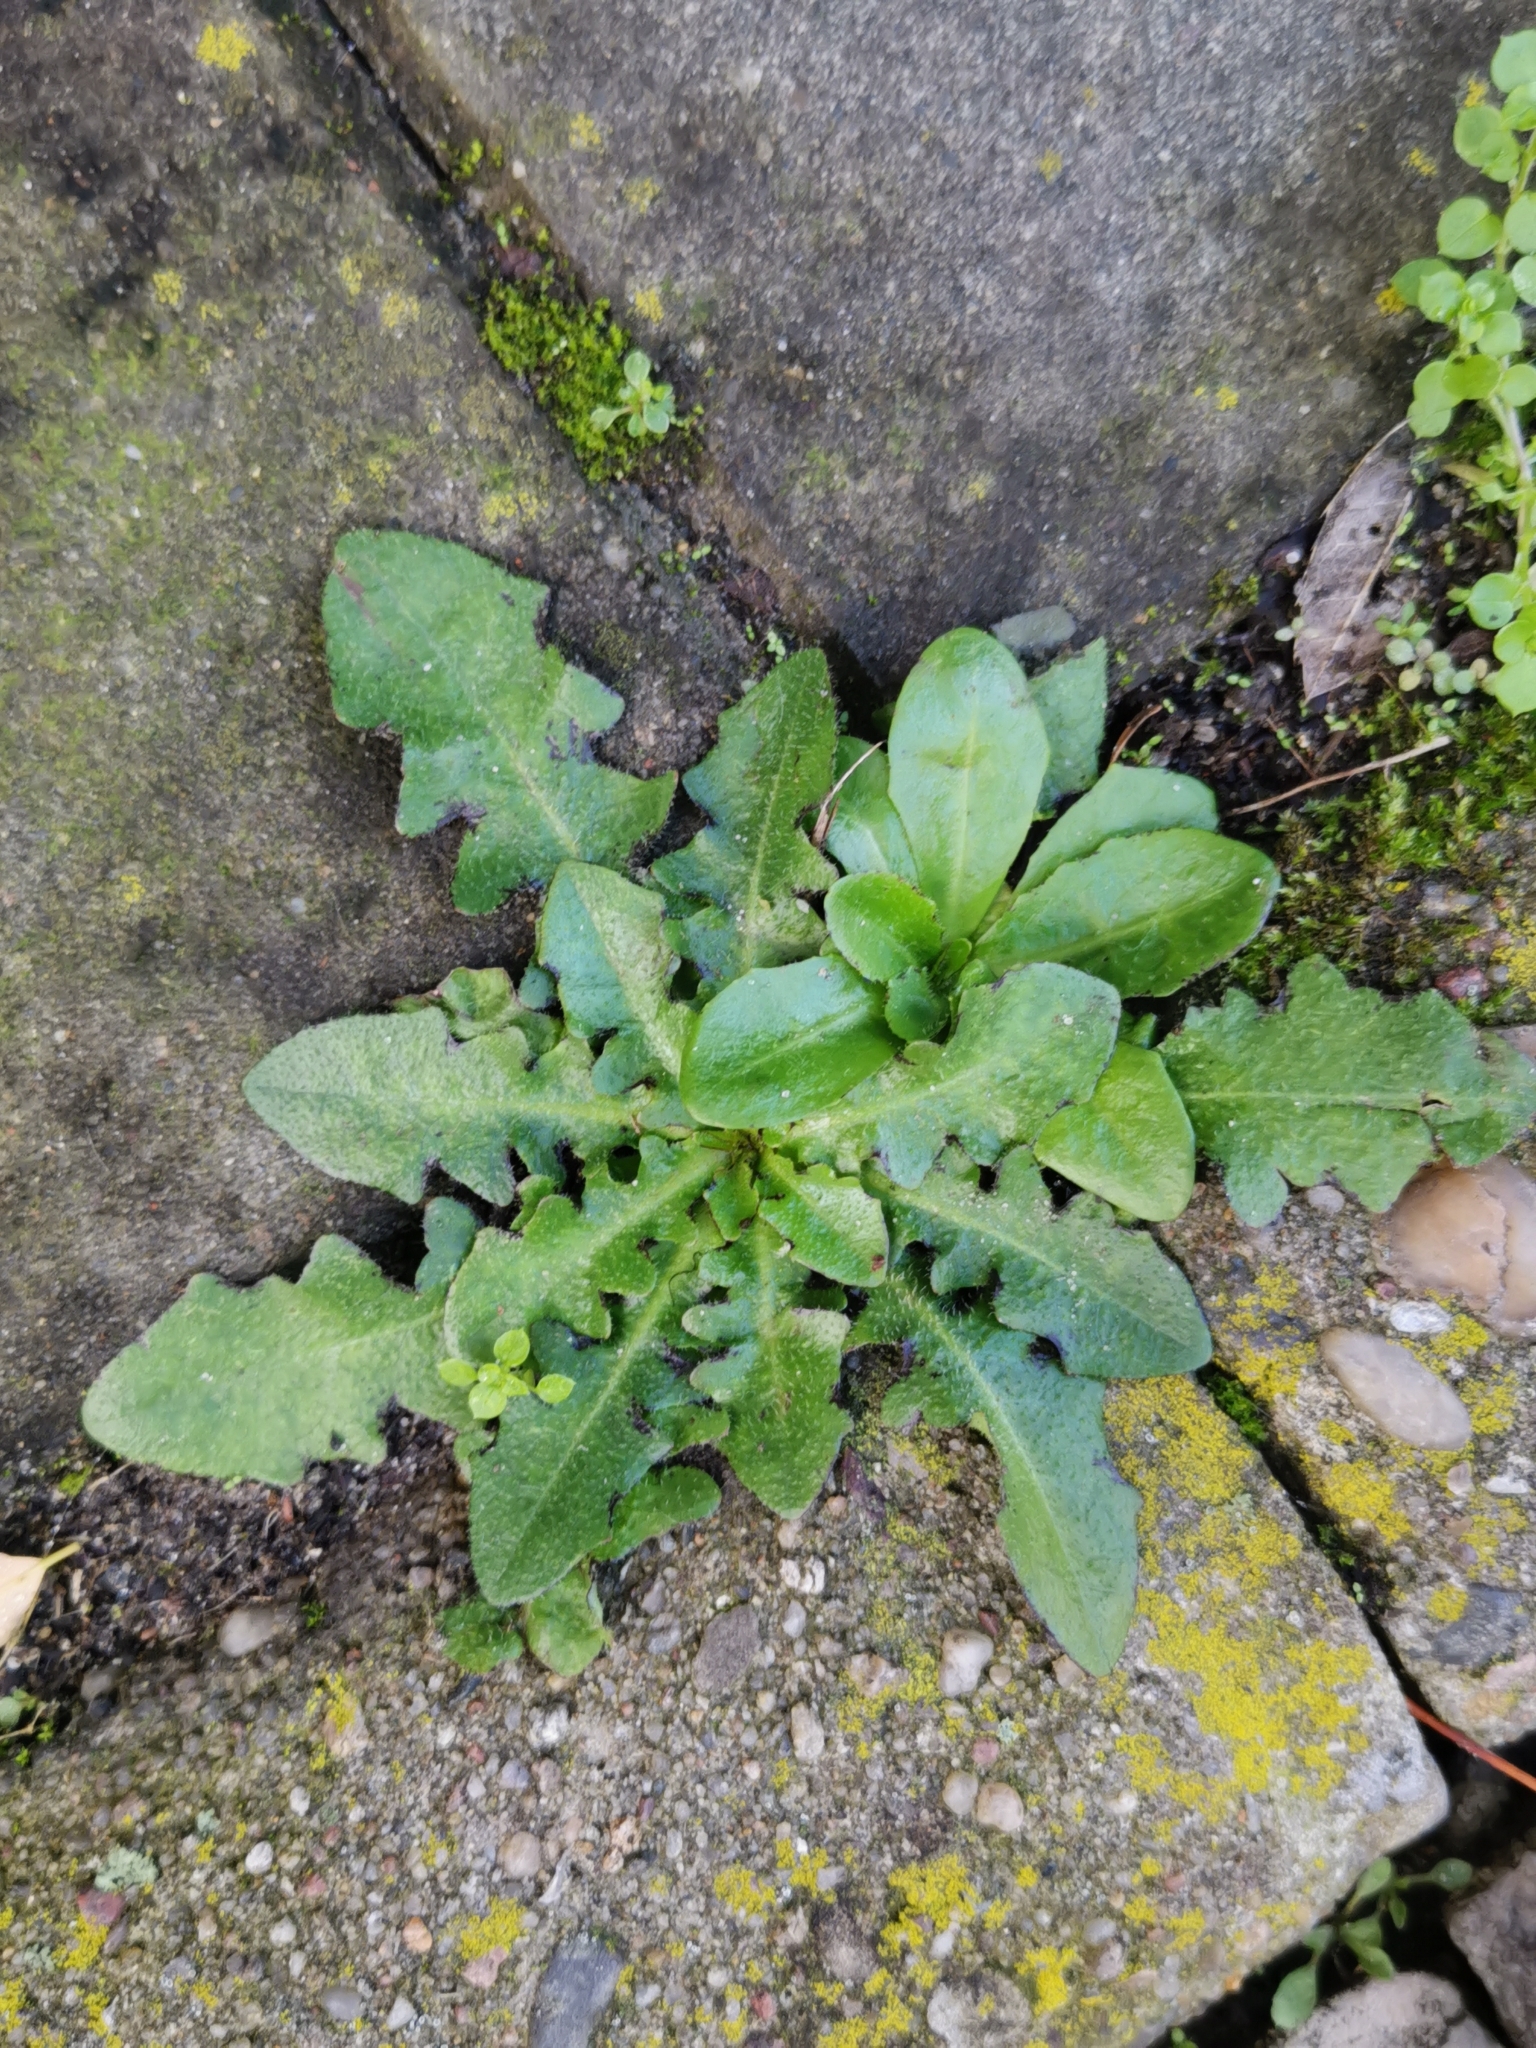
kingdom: Plantae
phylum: Tracheophyta
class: Magnoliopsida
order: Asterales
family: Asteraceae
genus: Hypochaeris
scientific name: Hypochaeris radicata
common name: Flatweed
